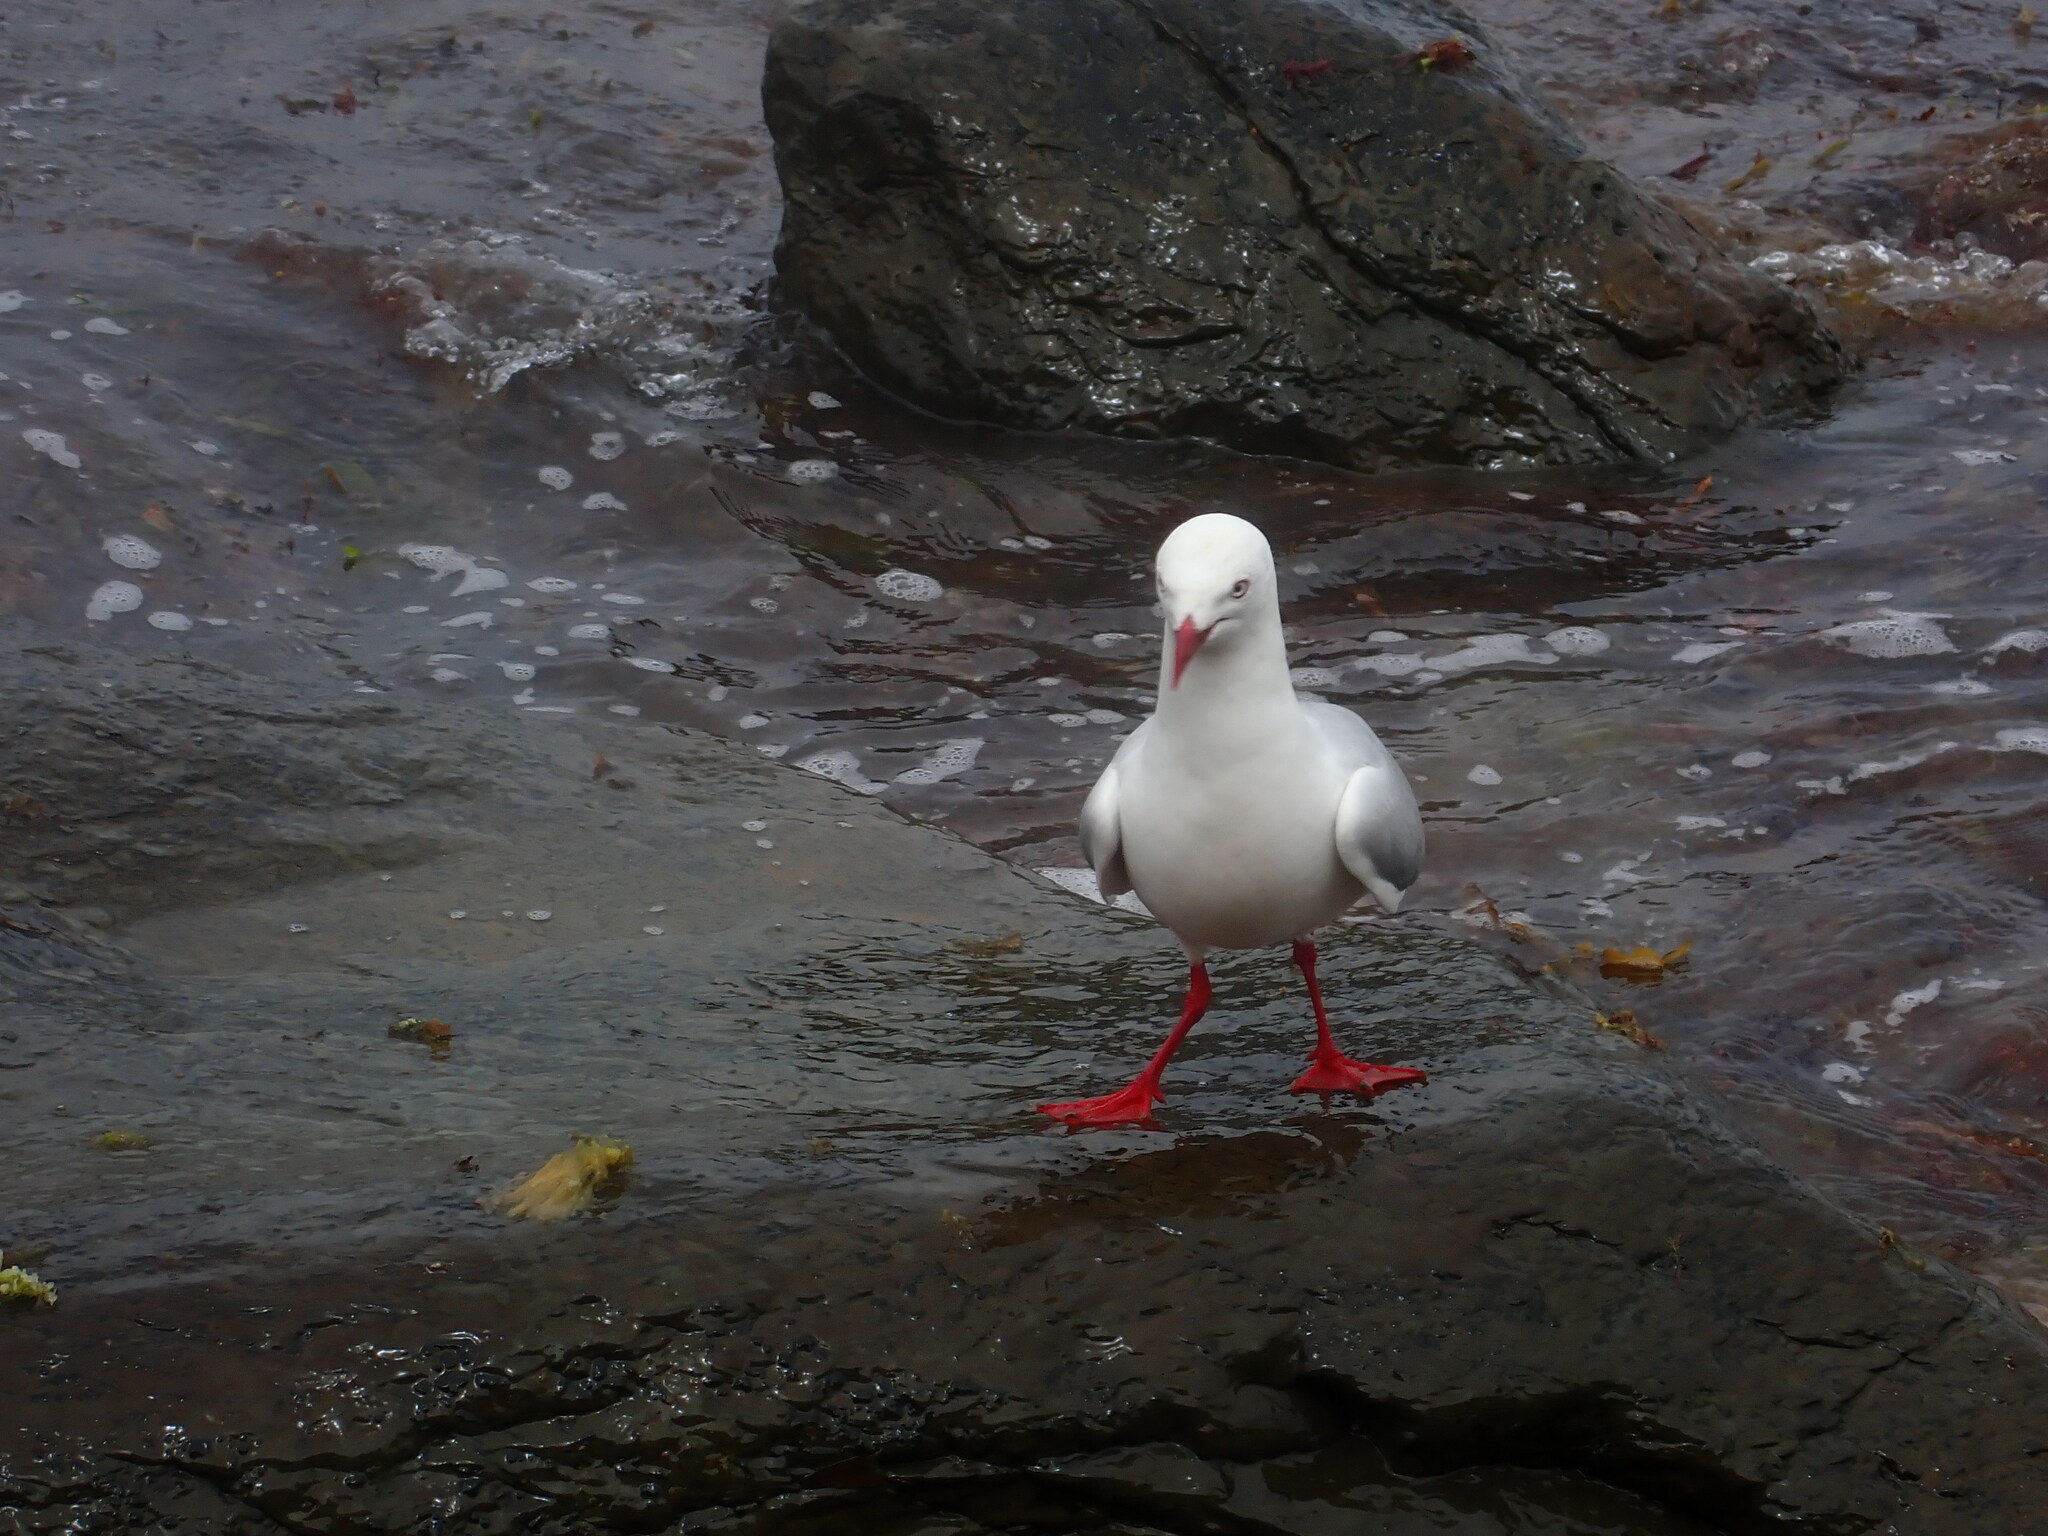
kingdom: Animalia
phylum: Chordata
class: Aves
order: Charadriiformes
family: Laridae
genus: Chroicocephalus
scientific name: Chroicocephalus novaehollandiae
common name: Silver gull
